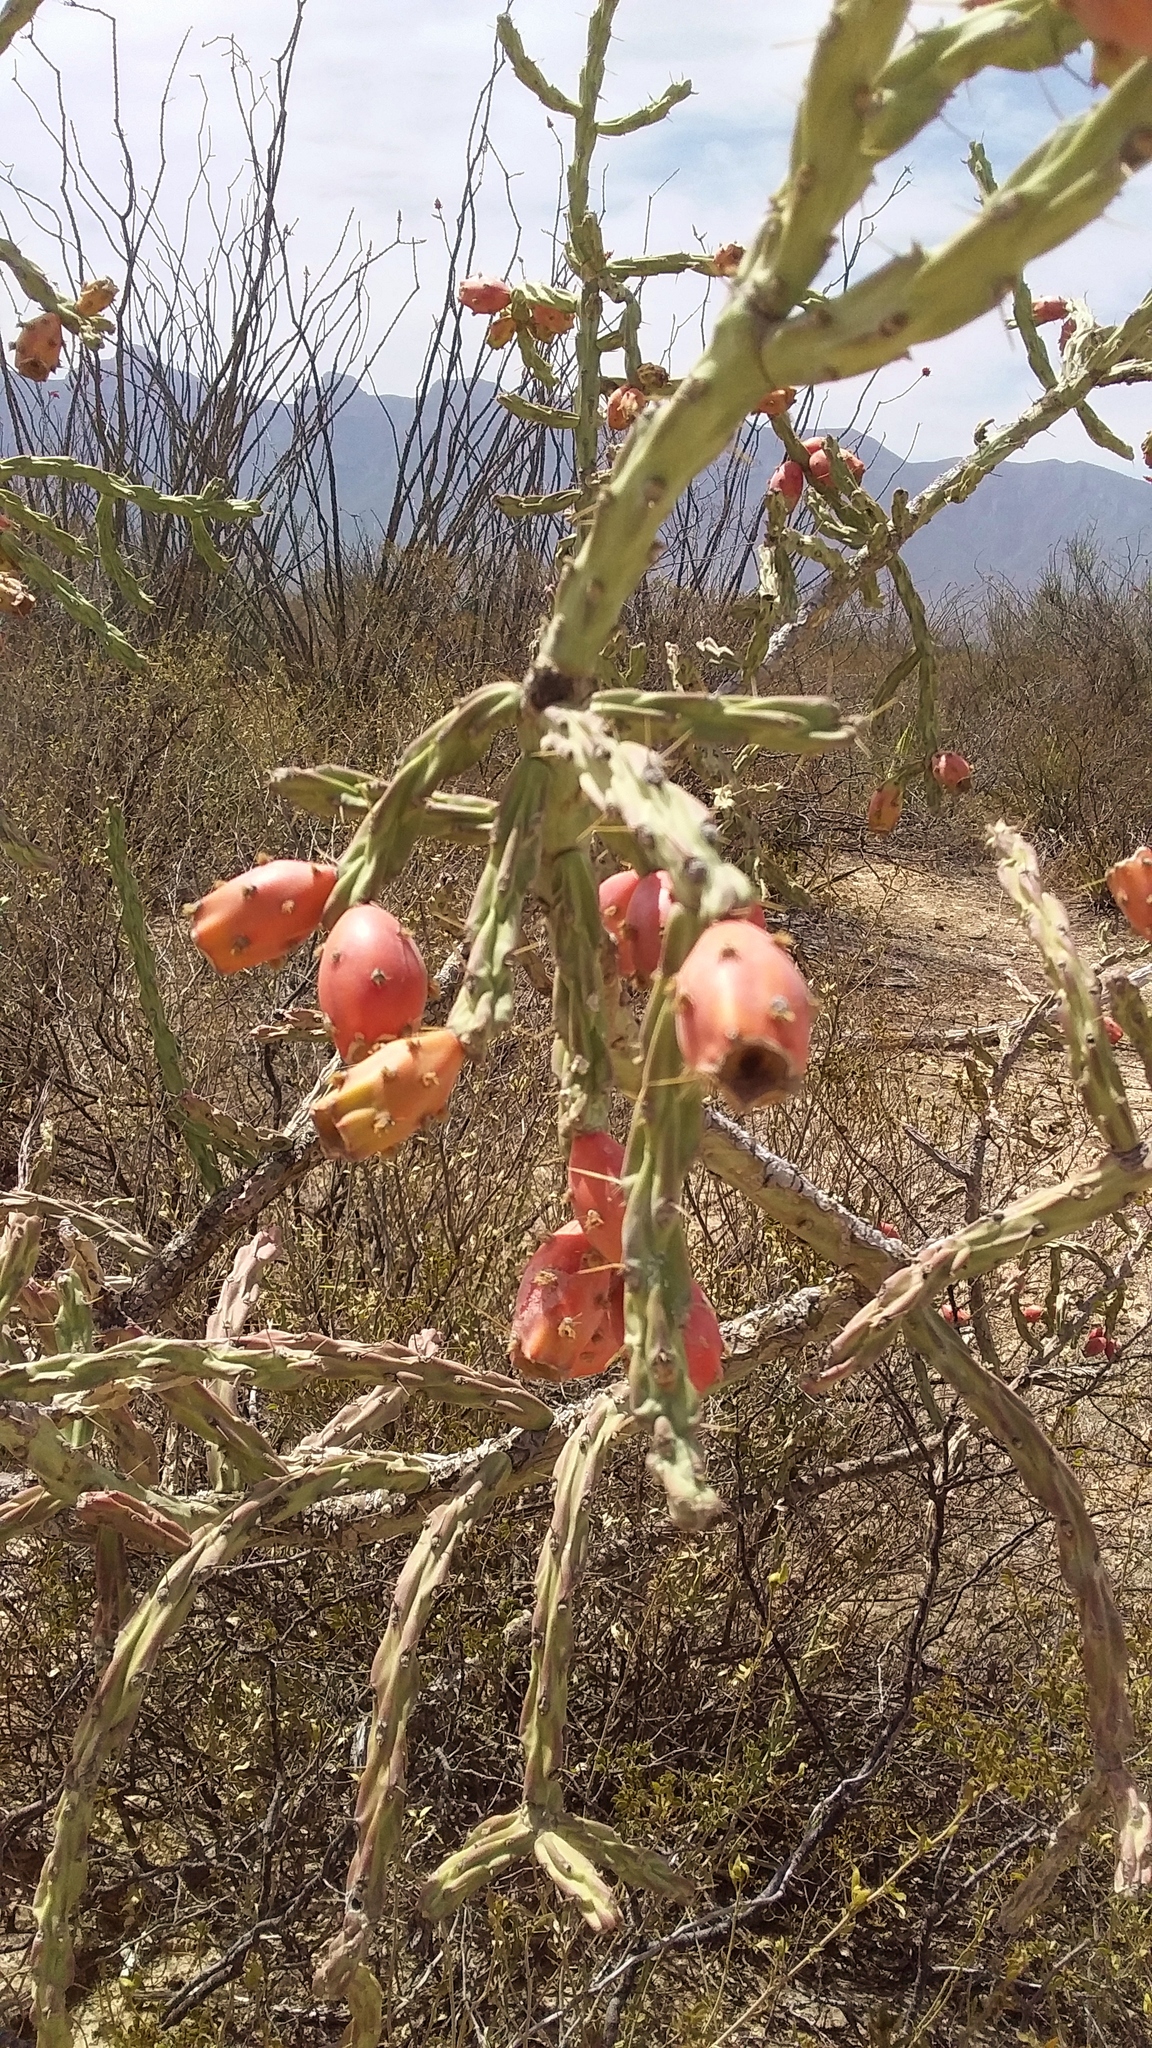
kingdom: Plantae
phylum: Tracheophyta
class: Magnoliopsida
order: Caryophyllales
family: Cactaceae
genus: Cylindropuntia
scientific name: Cylindropuntia kleiniae
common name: Klein's cholla
